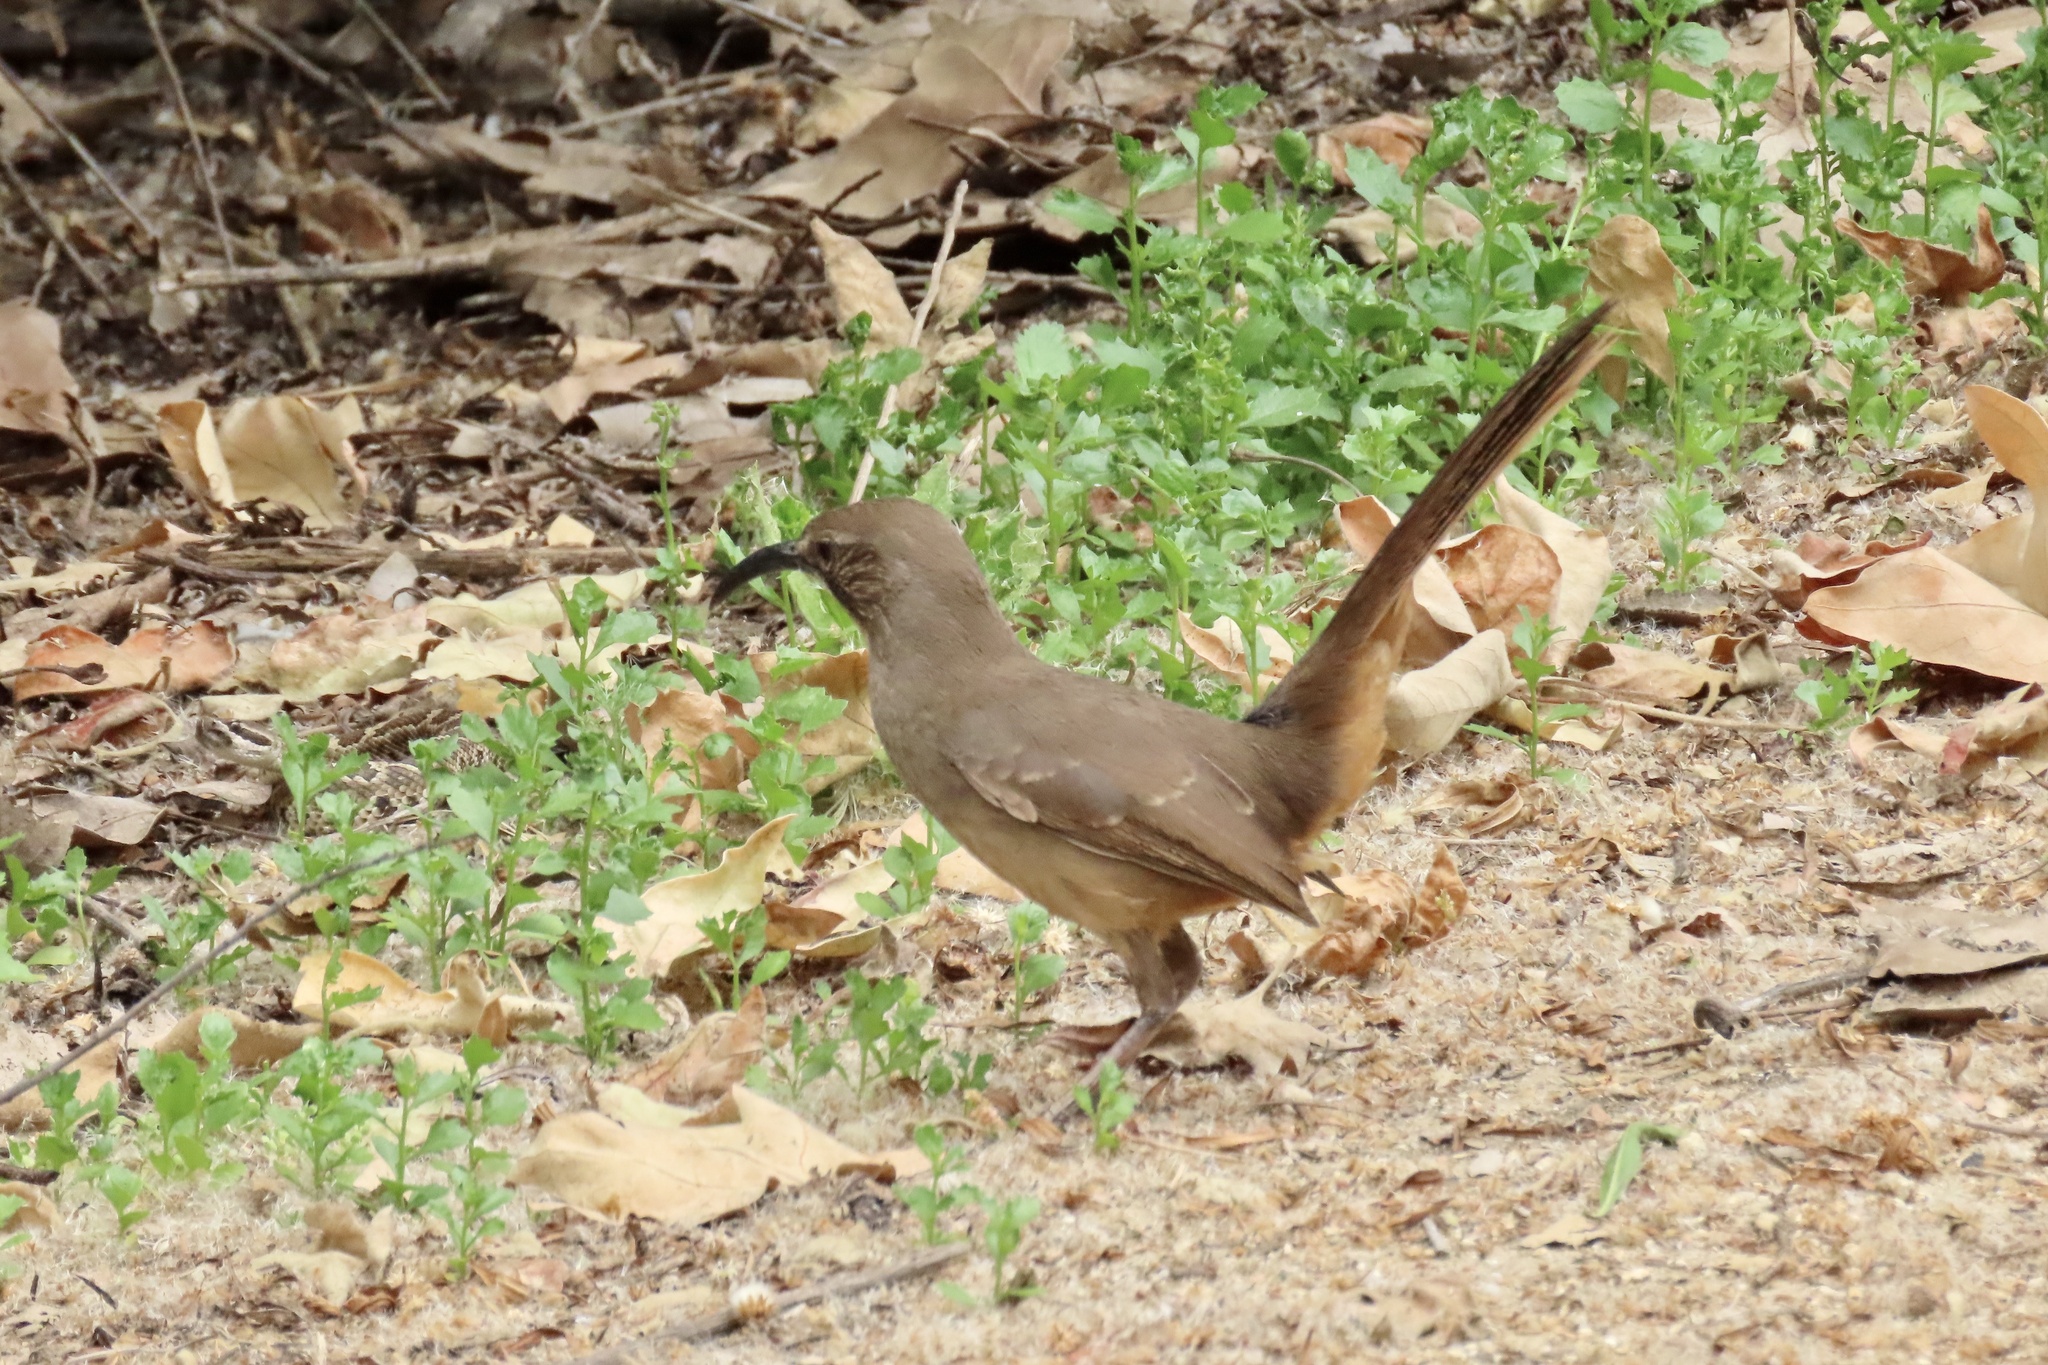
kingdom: Animalia
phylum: Chordata
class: Aves
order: Passeriformes
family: Mimidae
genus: Toxostoma
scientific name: Toxostoma redivivum
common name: California thrasher
